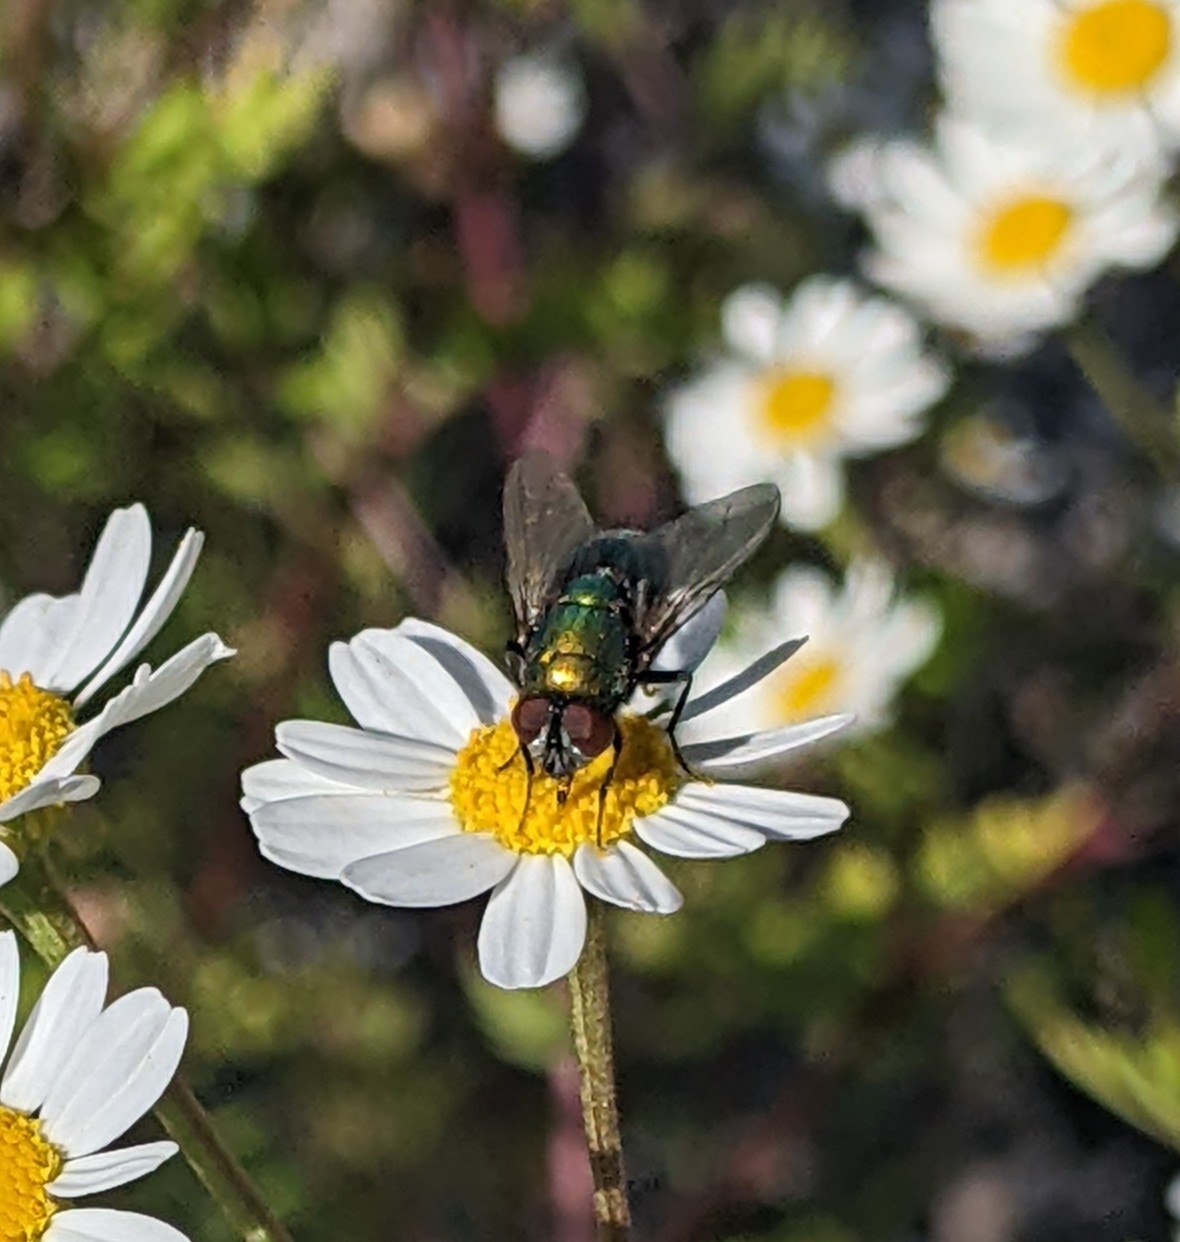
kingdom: Animalia
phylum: Arthropoda
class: Insecta
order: Diptera
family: Calliphoridae
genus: Lucilia
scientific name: Lucilia
